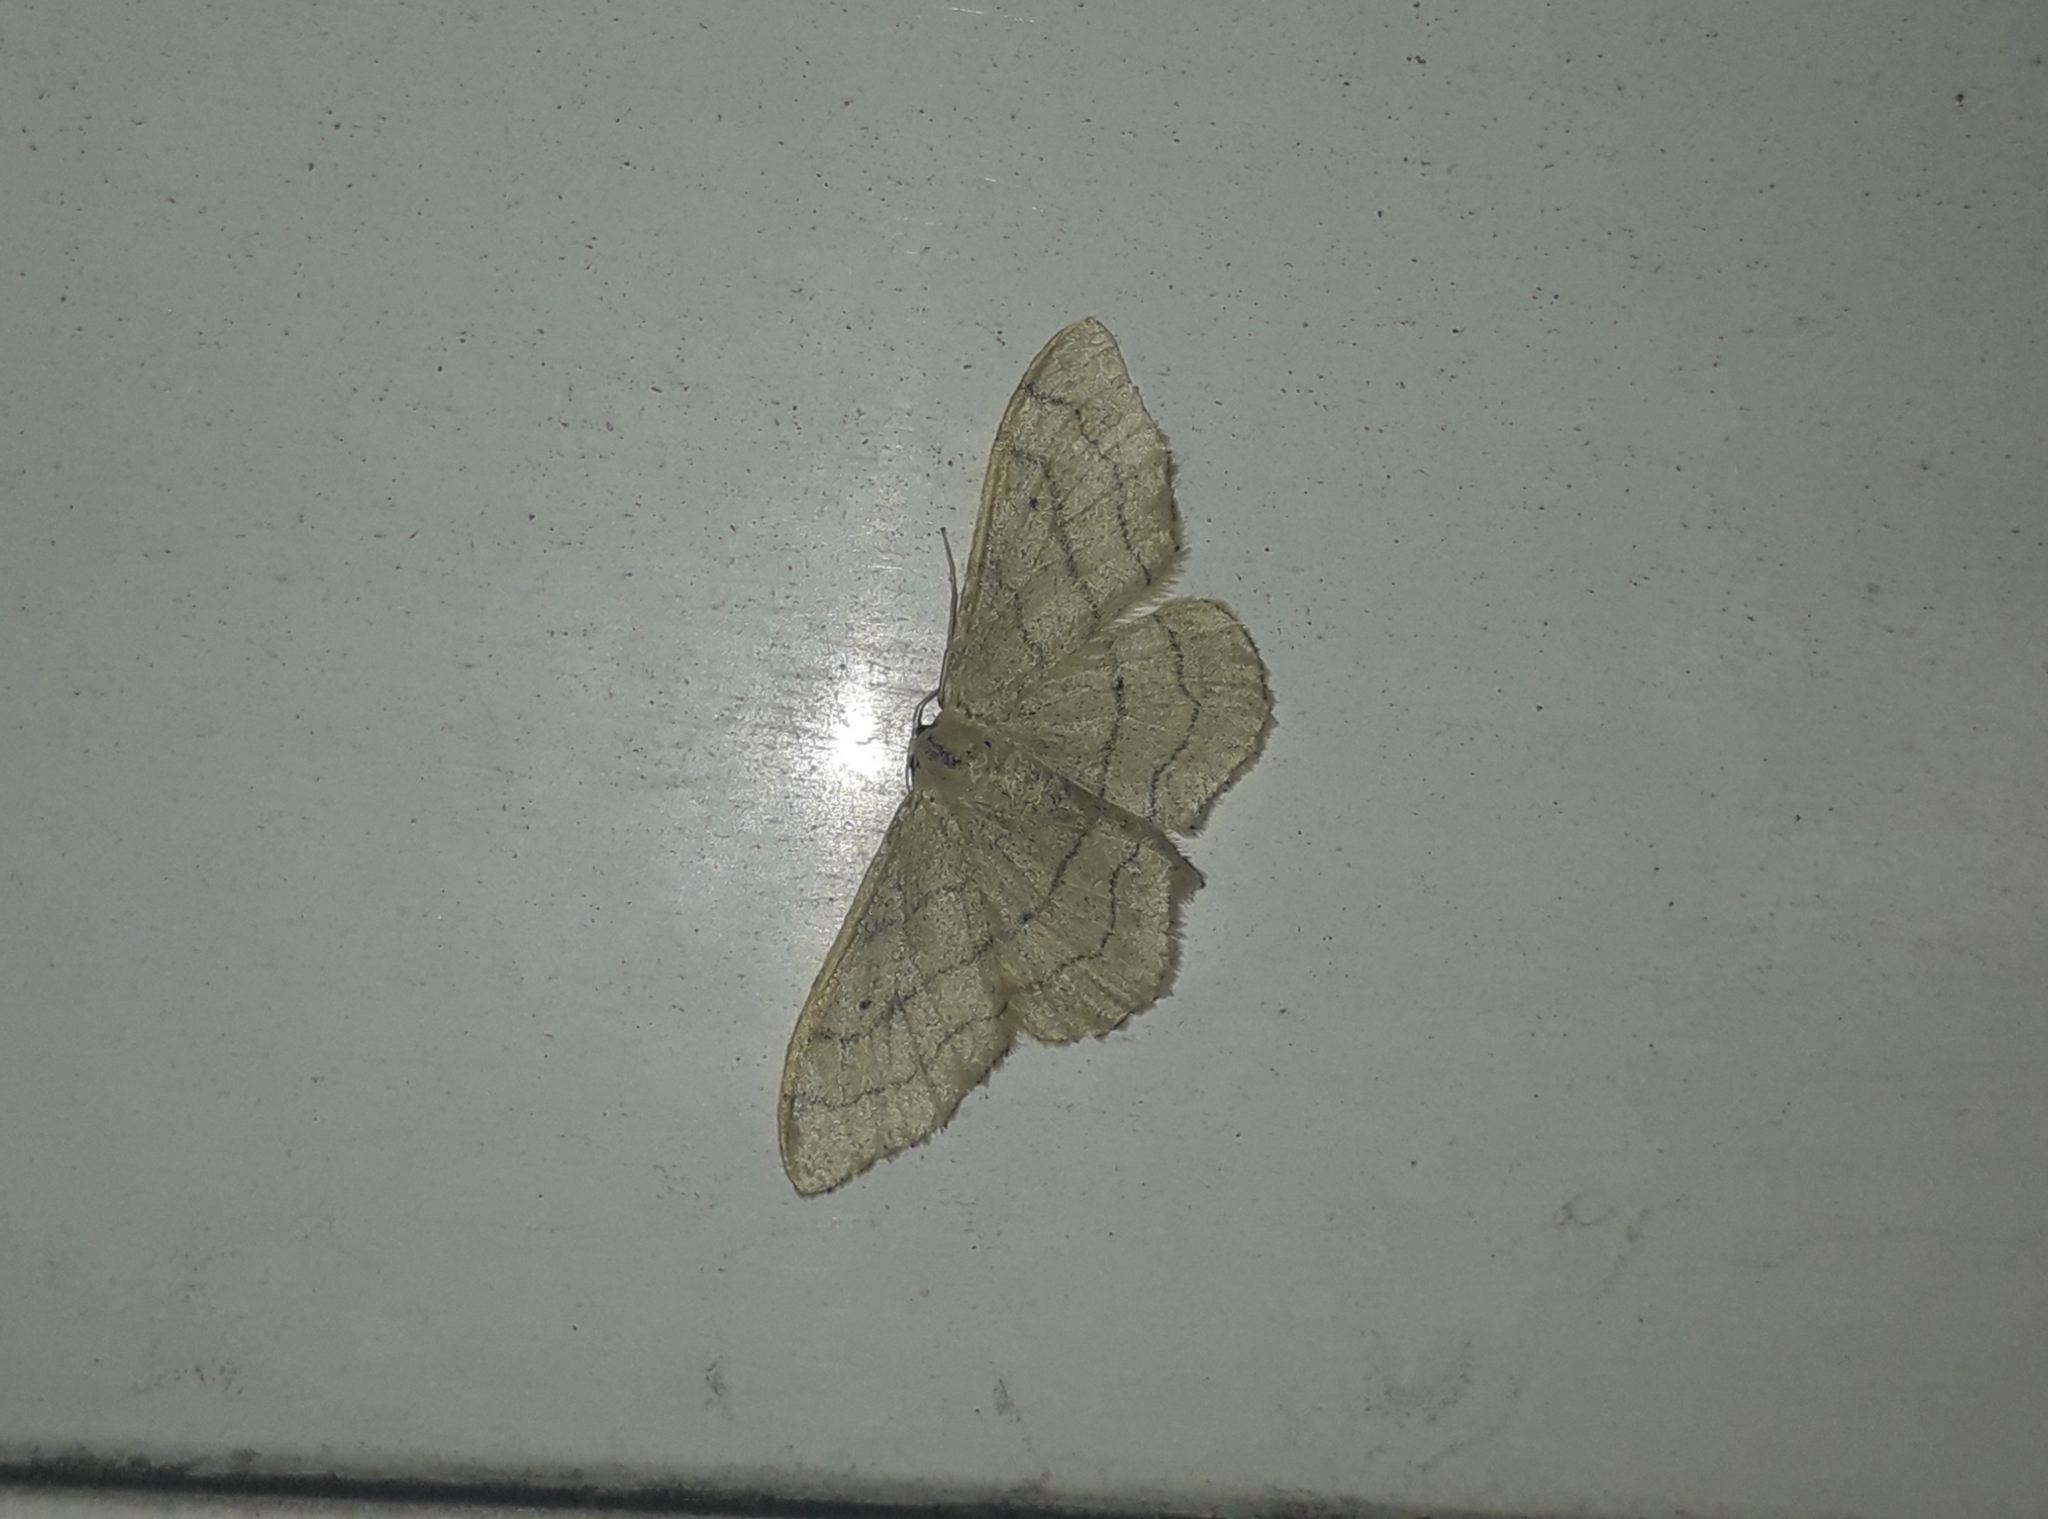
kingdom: Animalia
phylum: Arthropoda
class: Insecta
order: Lepidoptera
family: Geometridae
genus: Idaea
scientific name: Idaea aversata
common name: Riband wave
